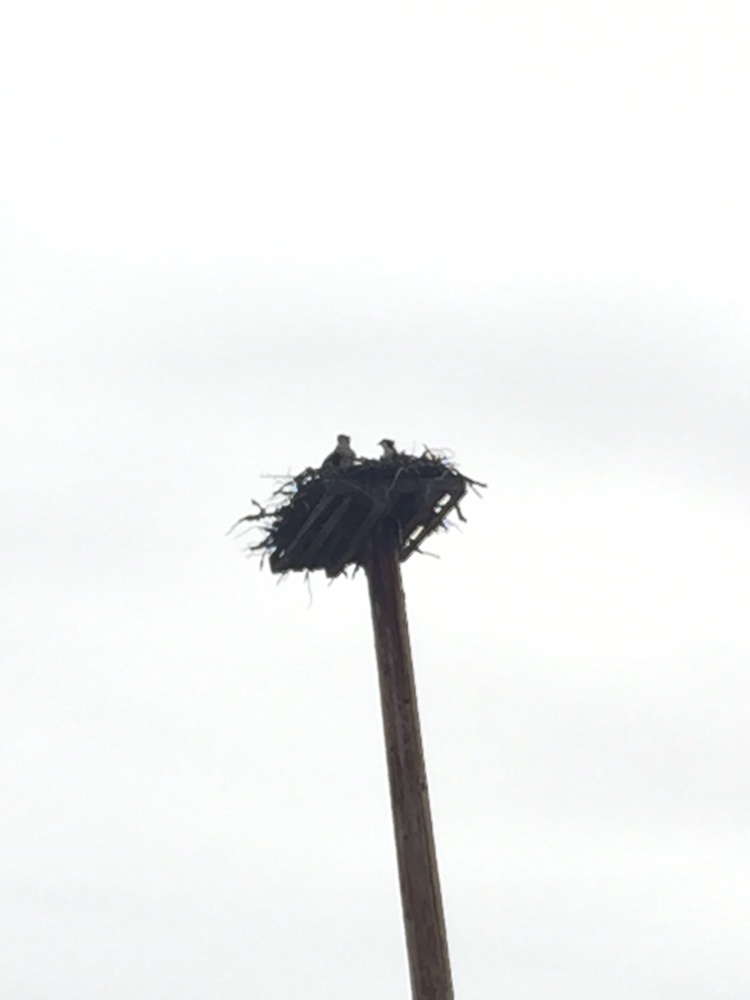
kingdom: Animalia
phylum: Chordata
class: Aves
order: Accipitriformes
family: Pandionidae
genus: Pandion
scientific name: Pandion haliaetus
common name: Osprey
